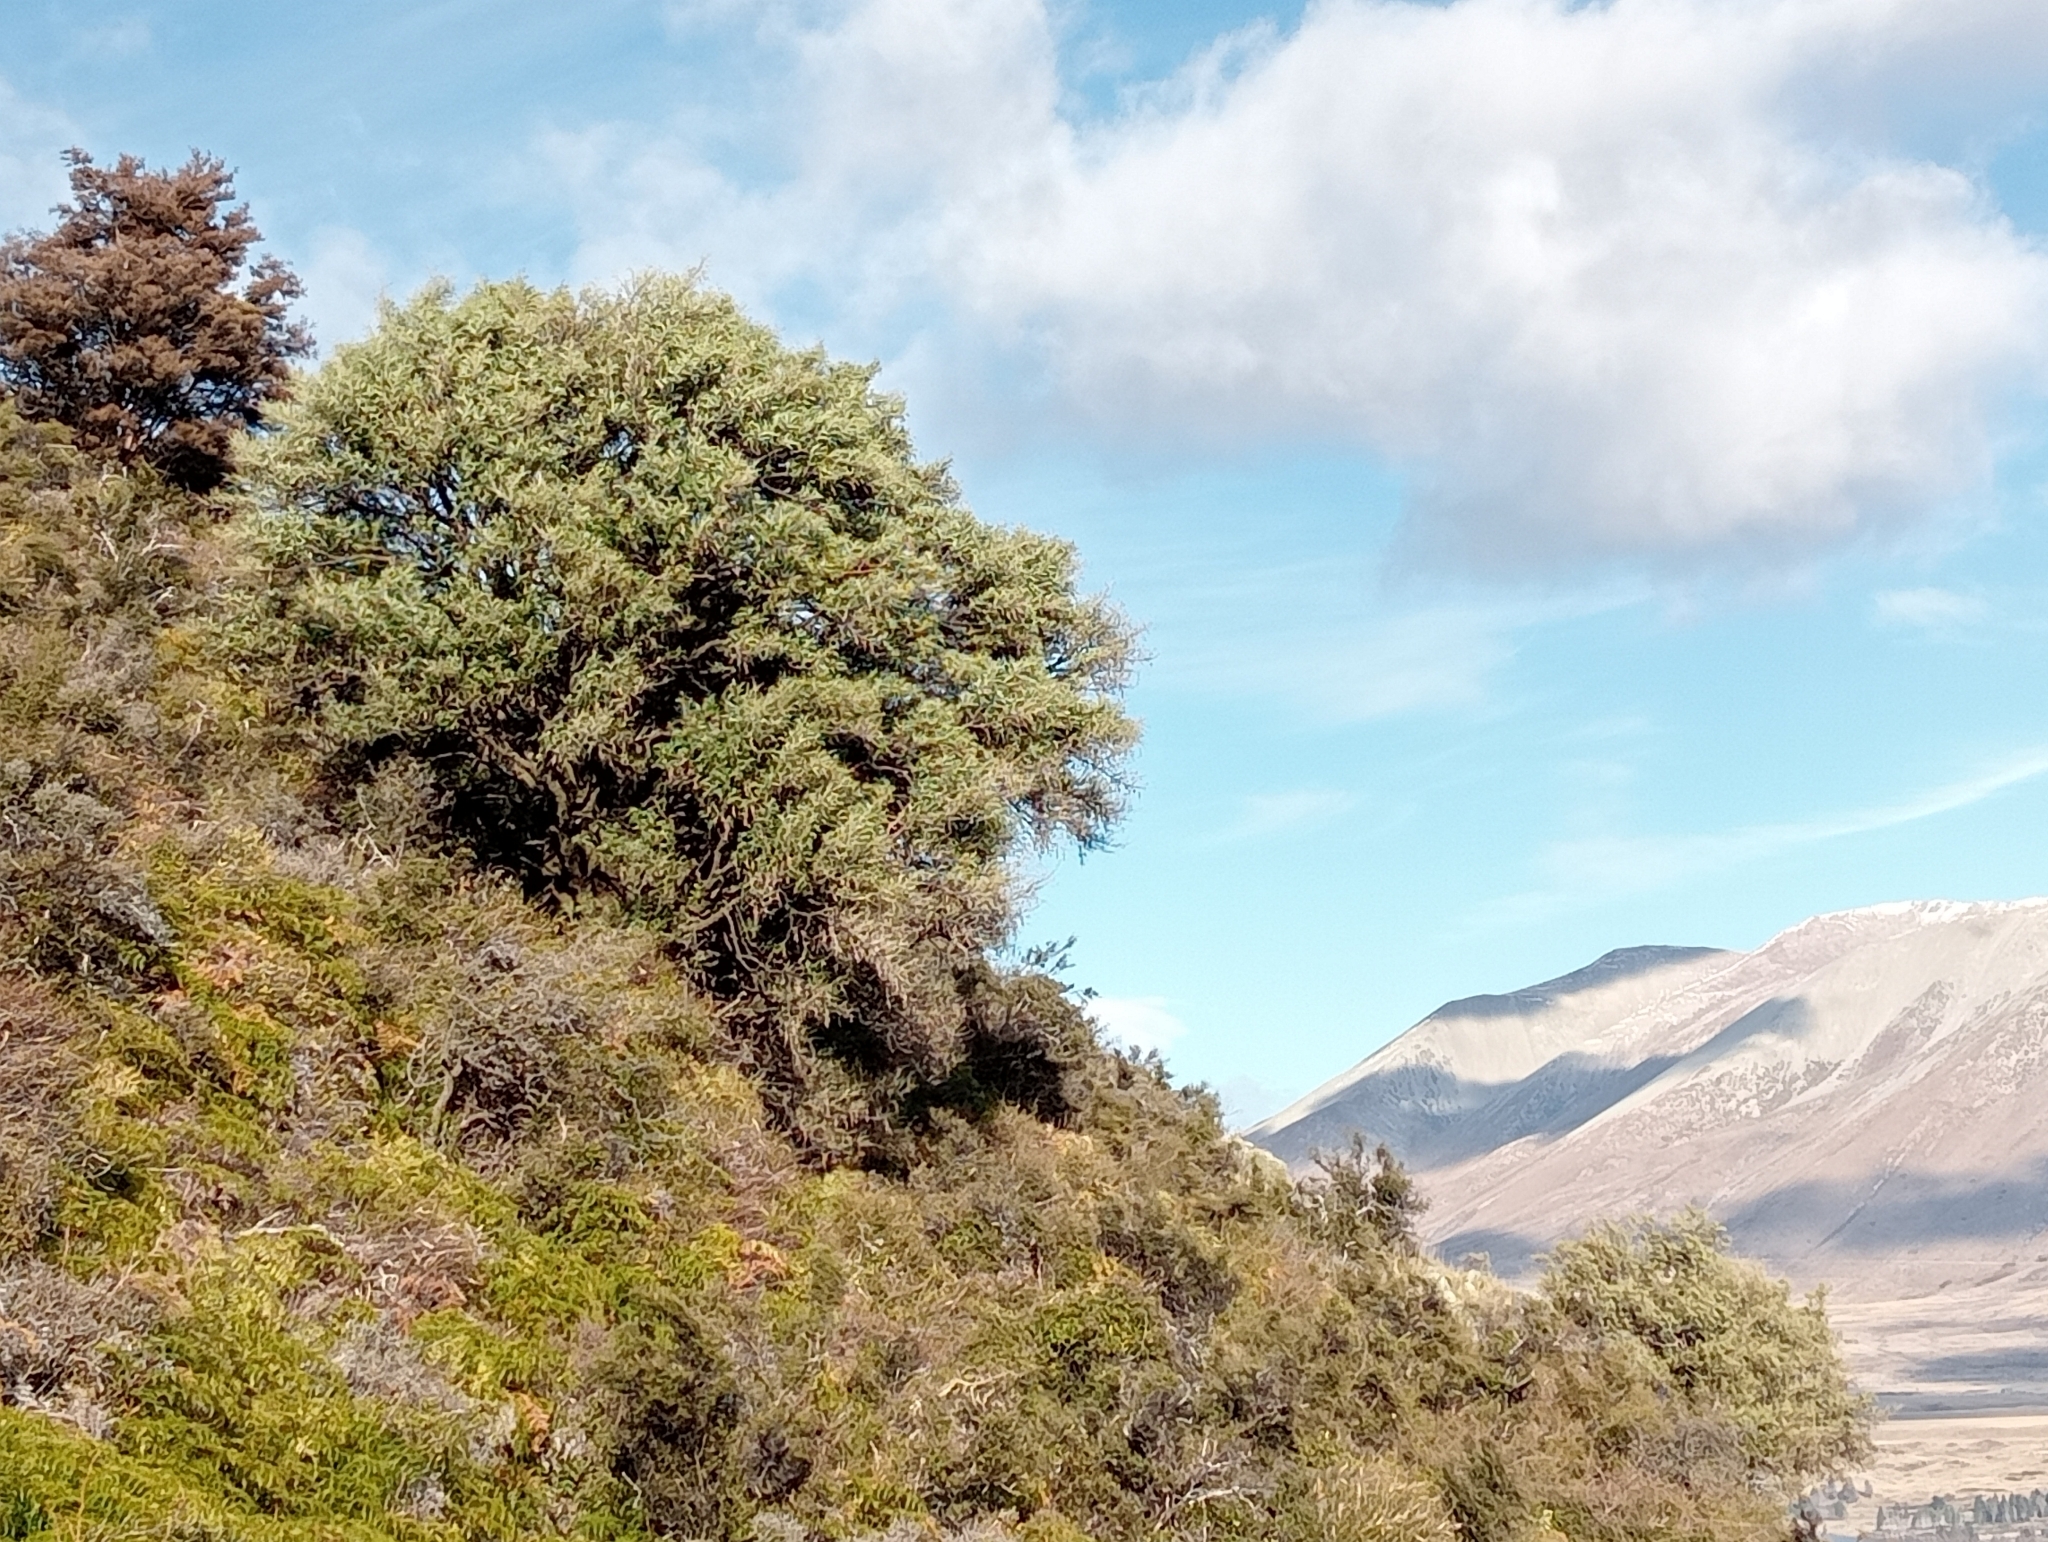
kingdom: Plantae
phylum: Tracheophyta
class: Magnoliopsida
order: Fabales
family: Fabaceae
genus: Sophora
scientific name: Sophora microphylla
